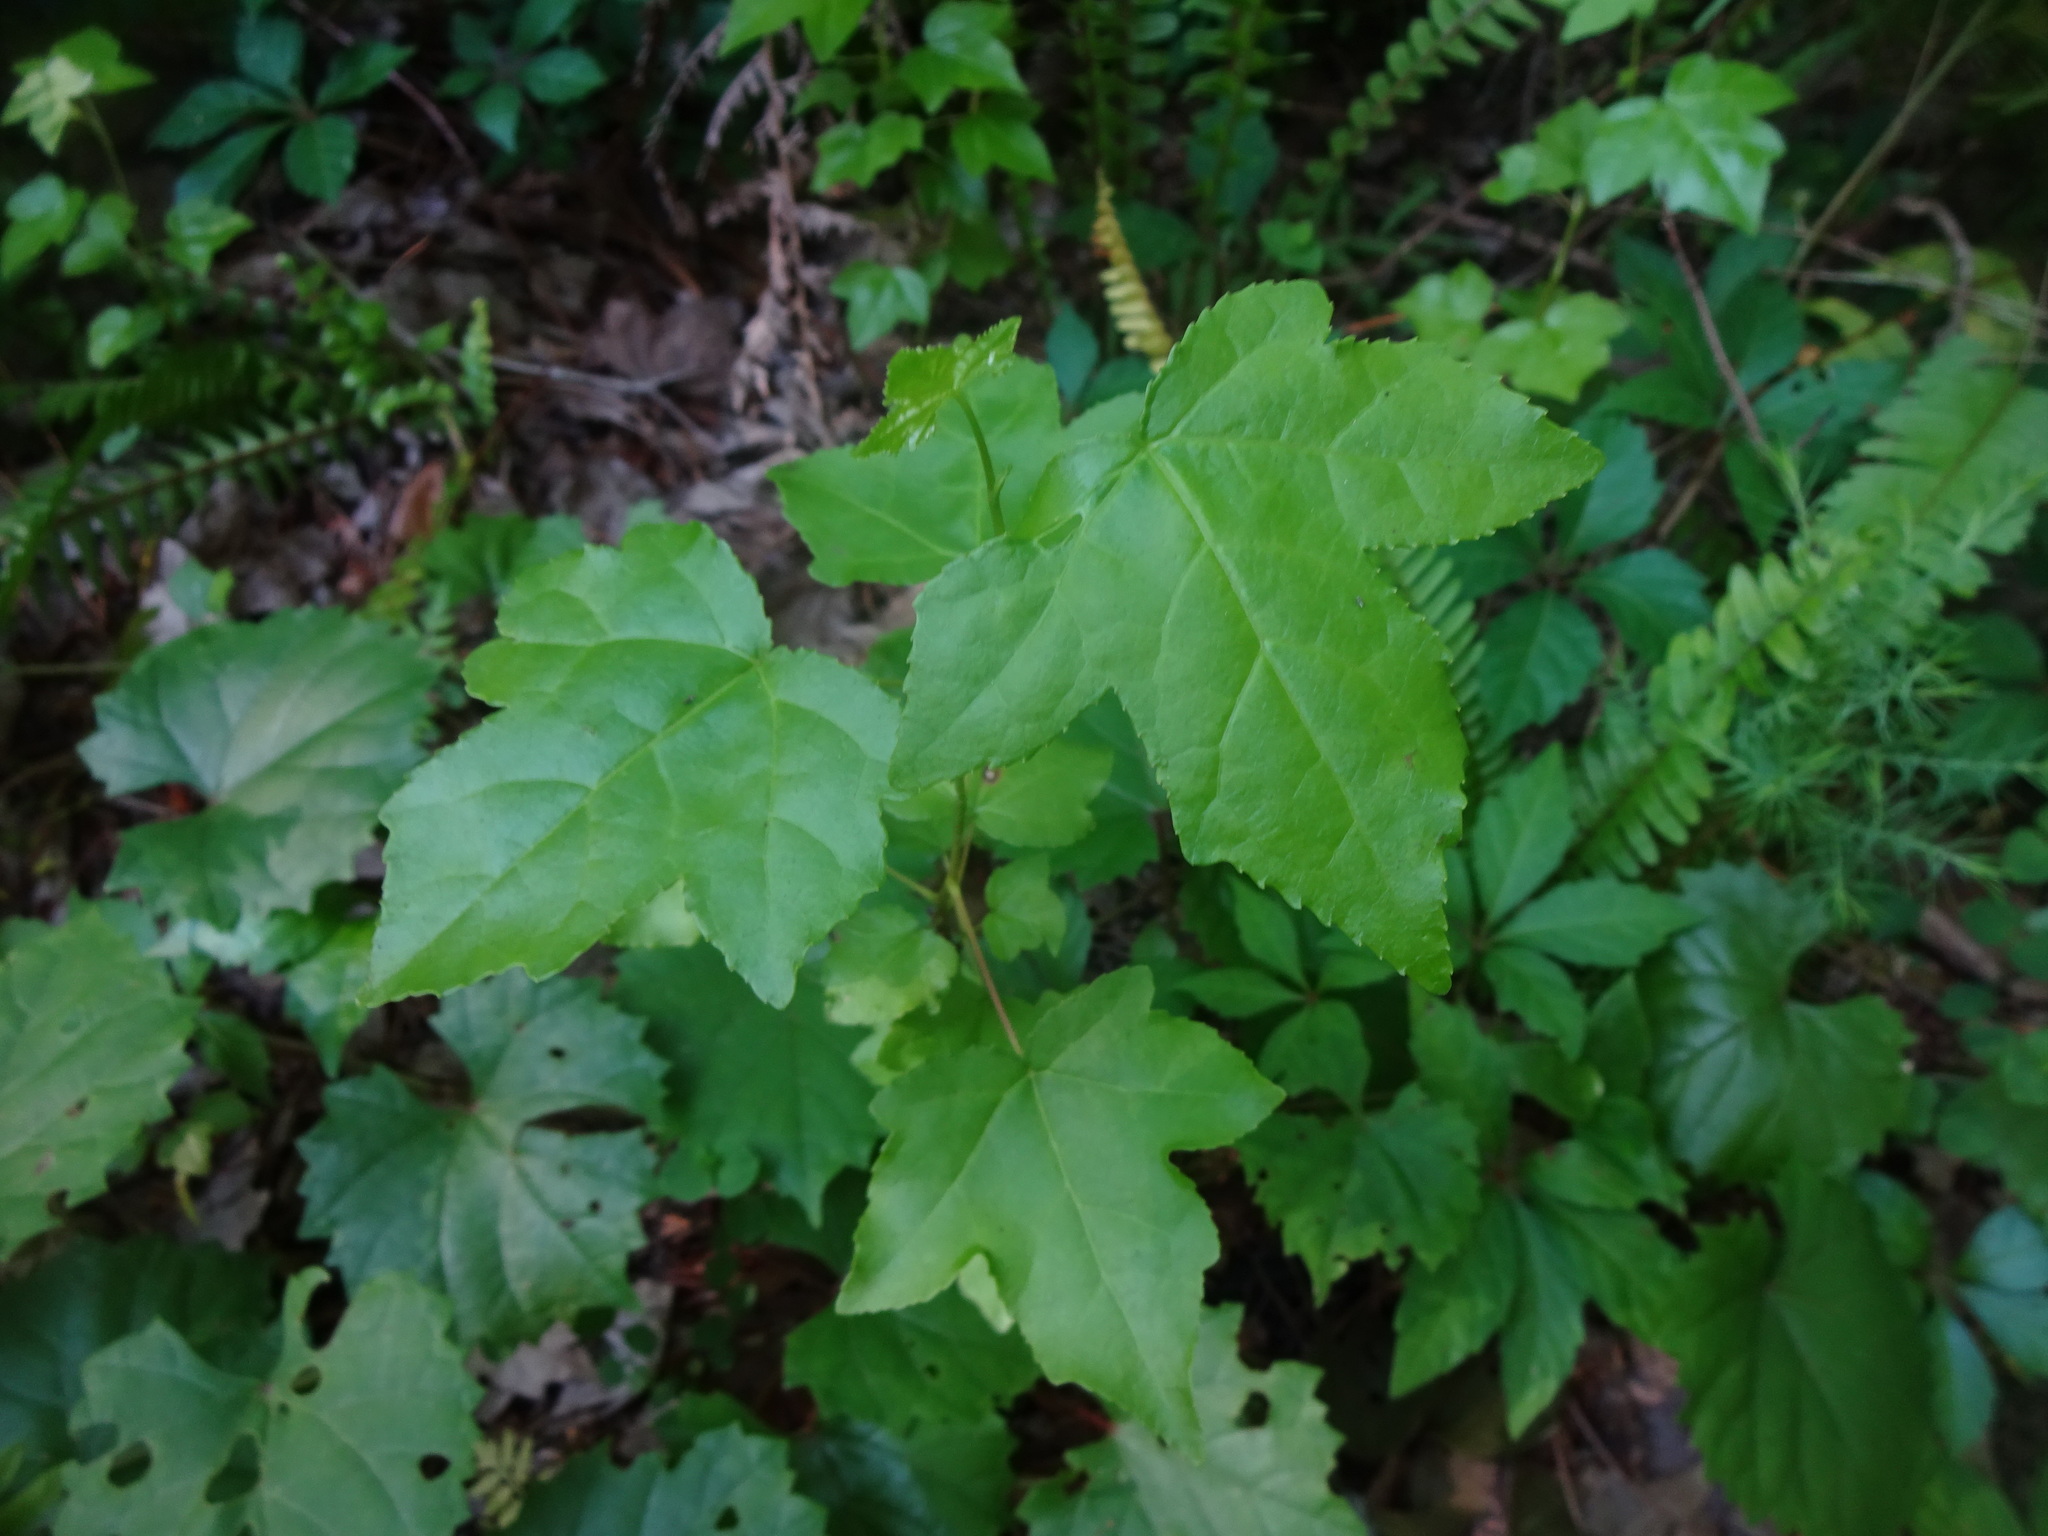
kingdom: Plantae
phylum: Tracheophyta
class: Magnoliopsida
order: Saxifragales
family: Altingiaceae
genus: Liquidambar
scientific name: Liquidambar styraciflua
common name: Sweet gum
